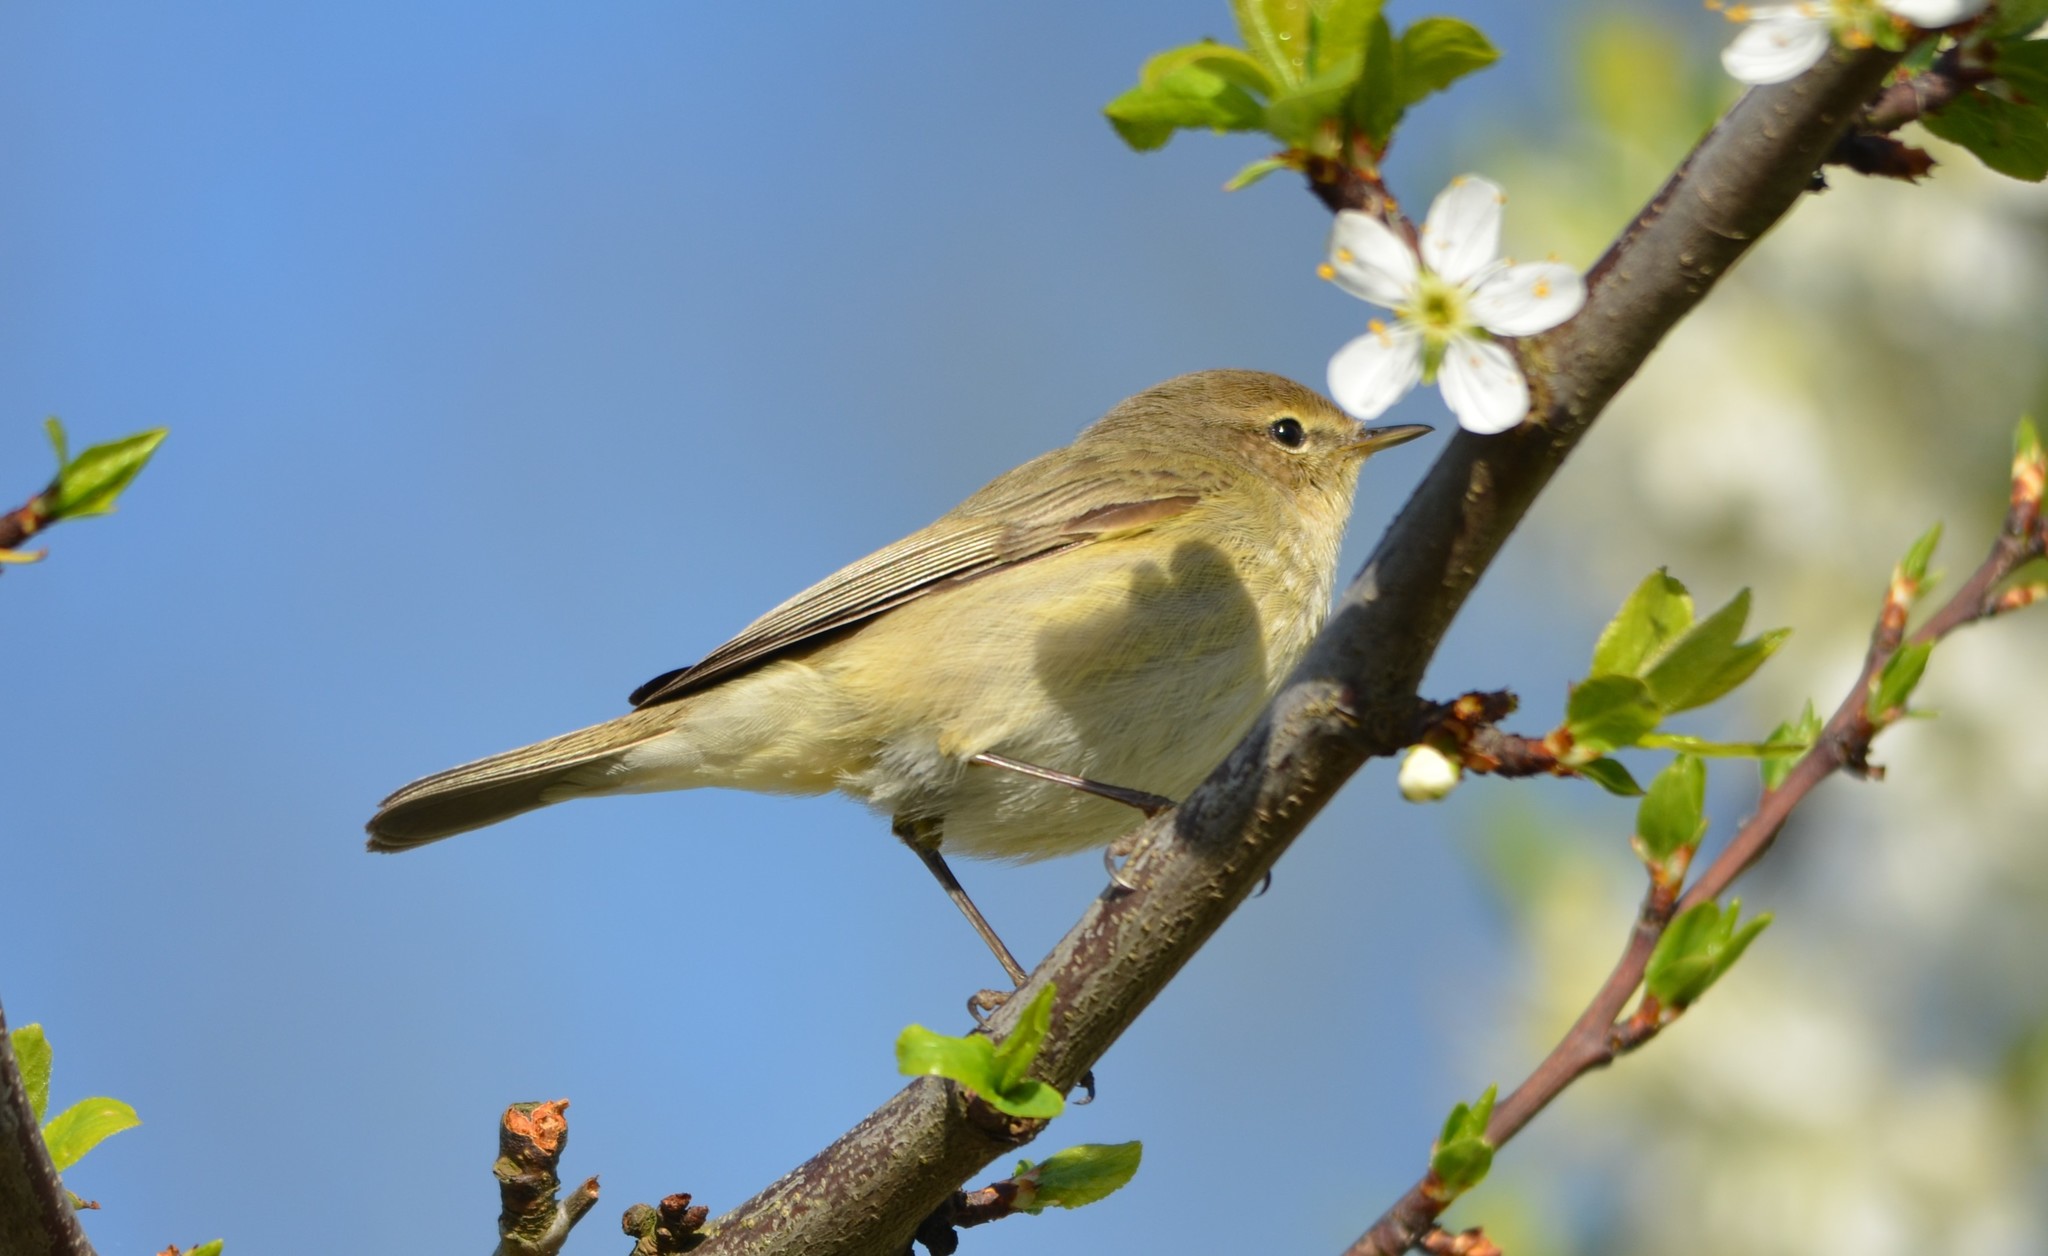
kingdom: Animalia
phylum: Chordata
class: Aves
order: Passeriformes
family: Phylloscopidae
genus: Phylloscopus
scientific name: Phylloscopus collybita
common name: Common chiffchaff
